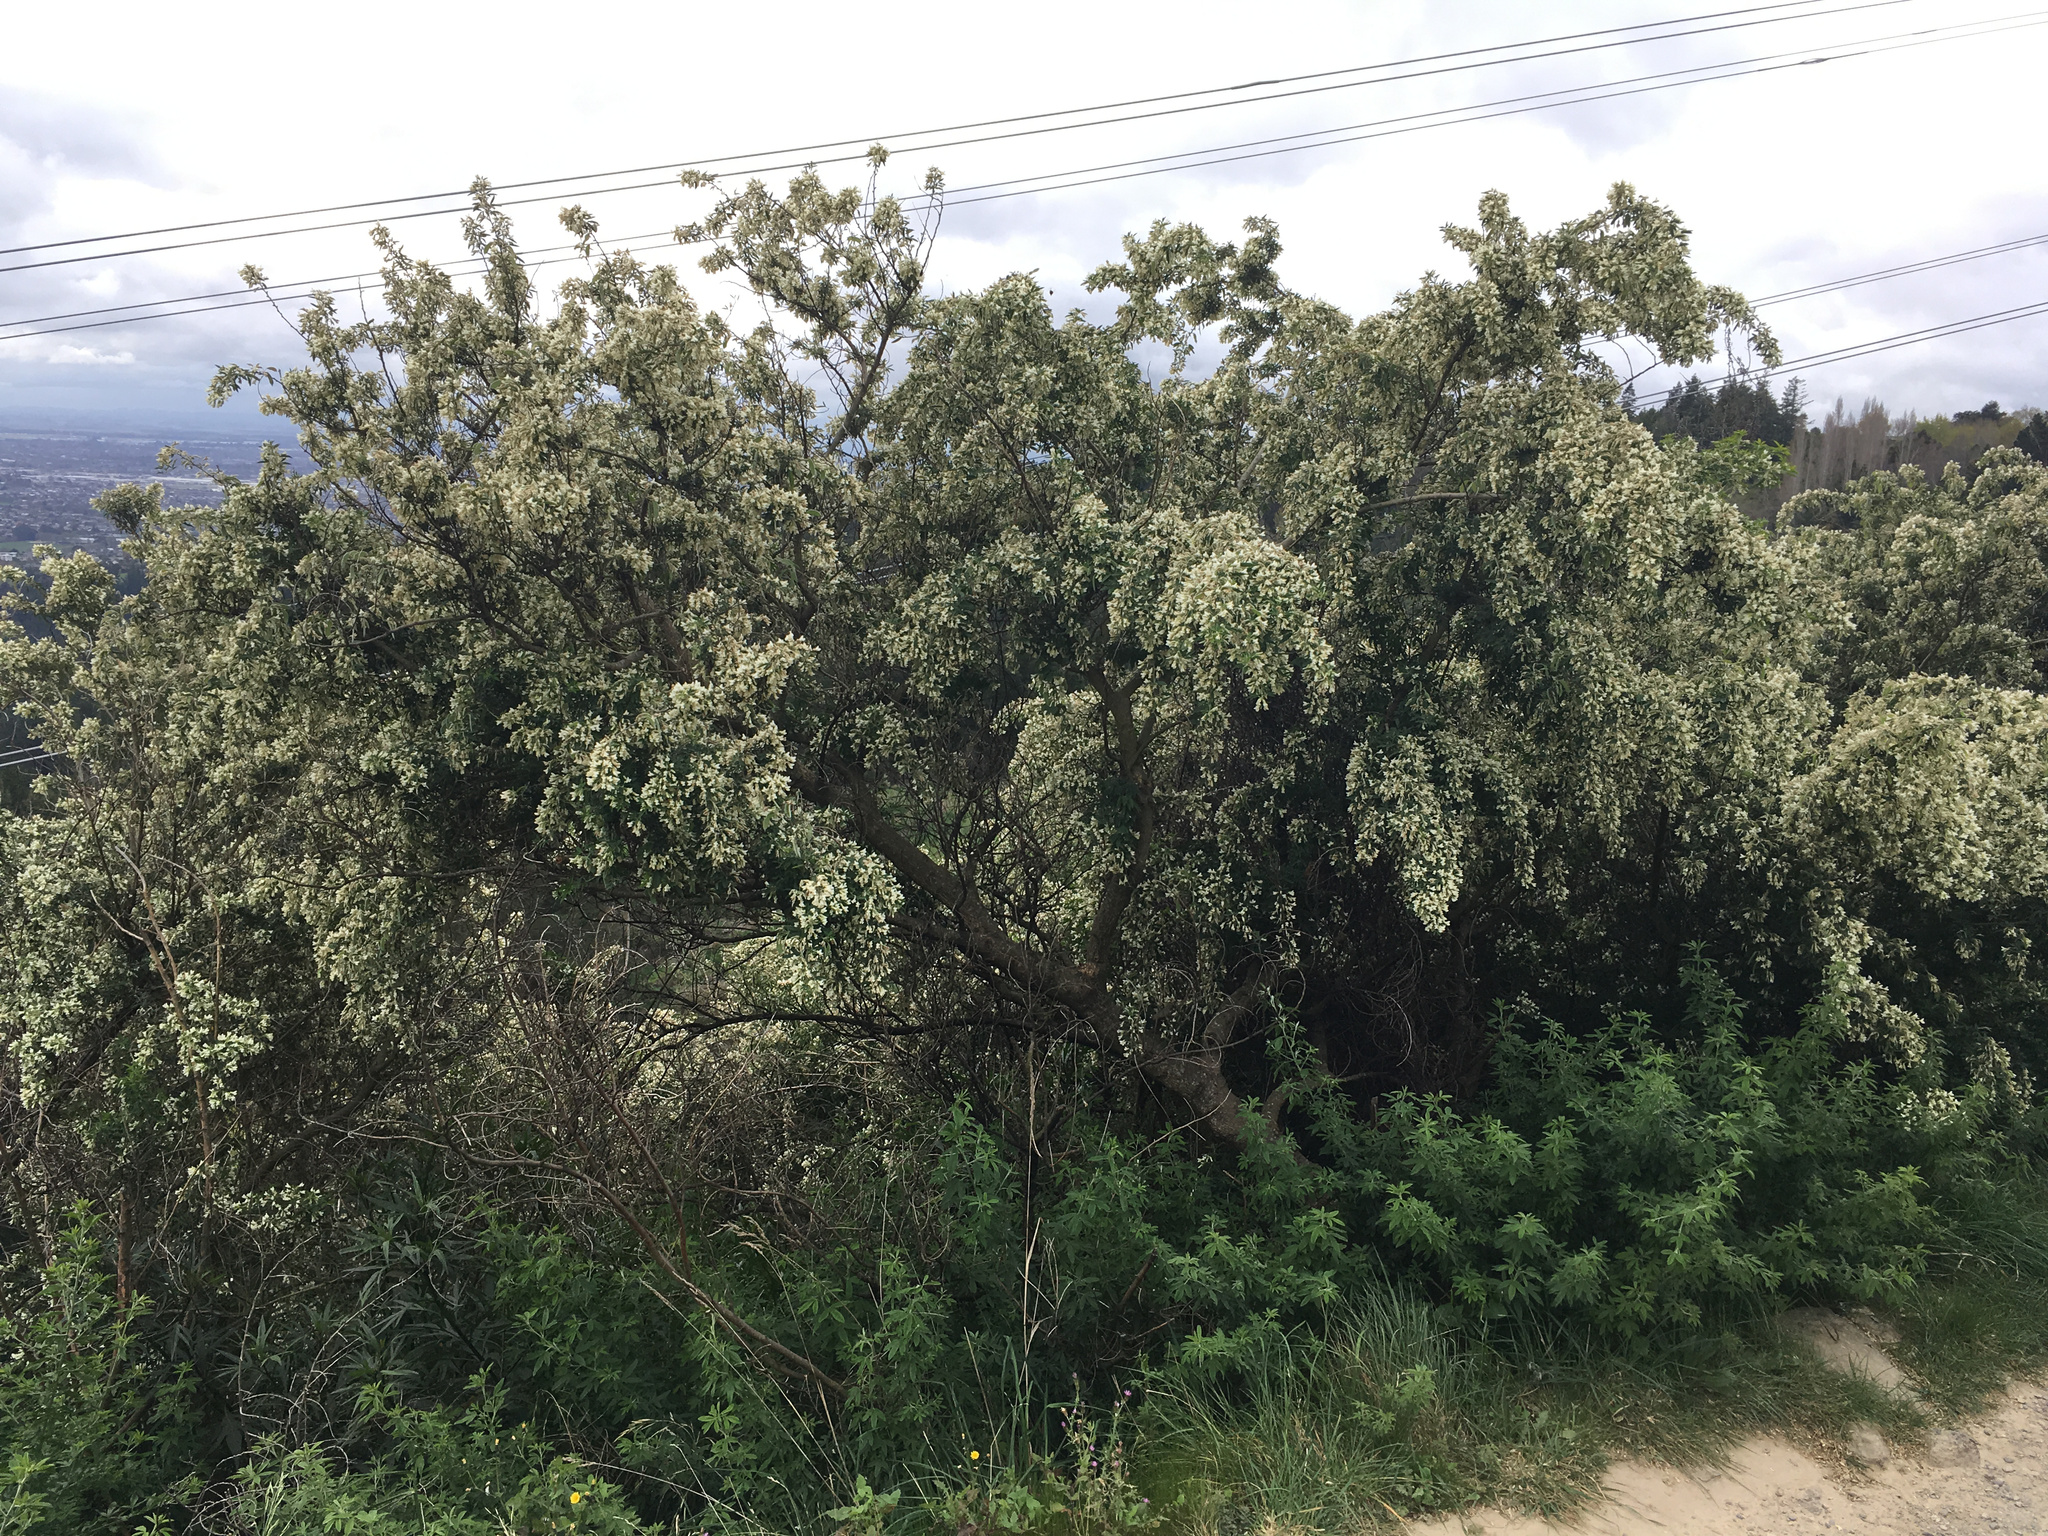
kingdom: Plantae
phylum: Tracheophyta
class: Magnoliopsida
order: Fabales
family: Fabaceae
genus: Chamaecytisus
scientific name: Chamaecytisus prolifer
